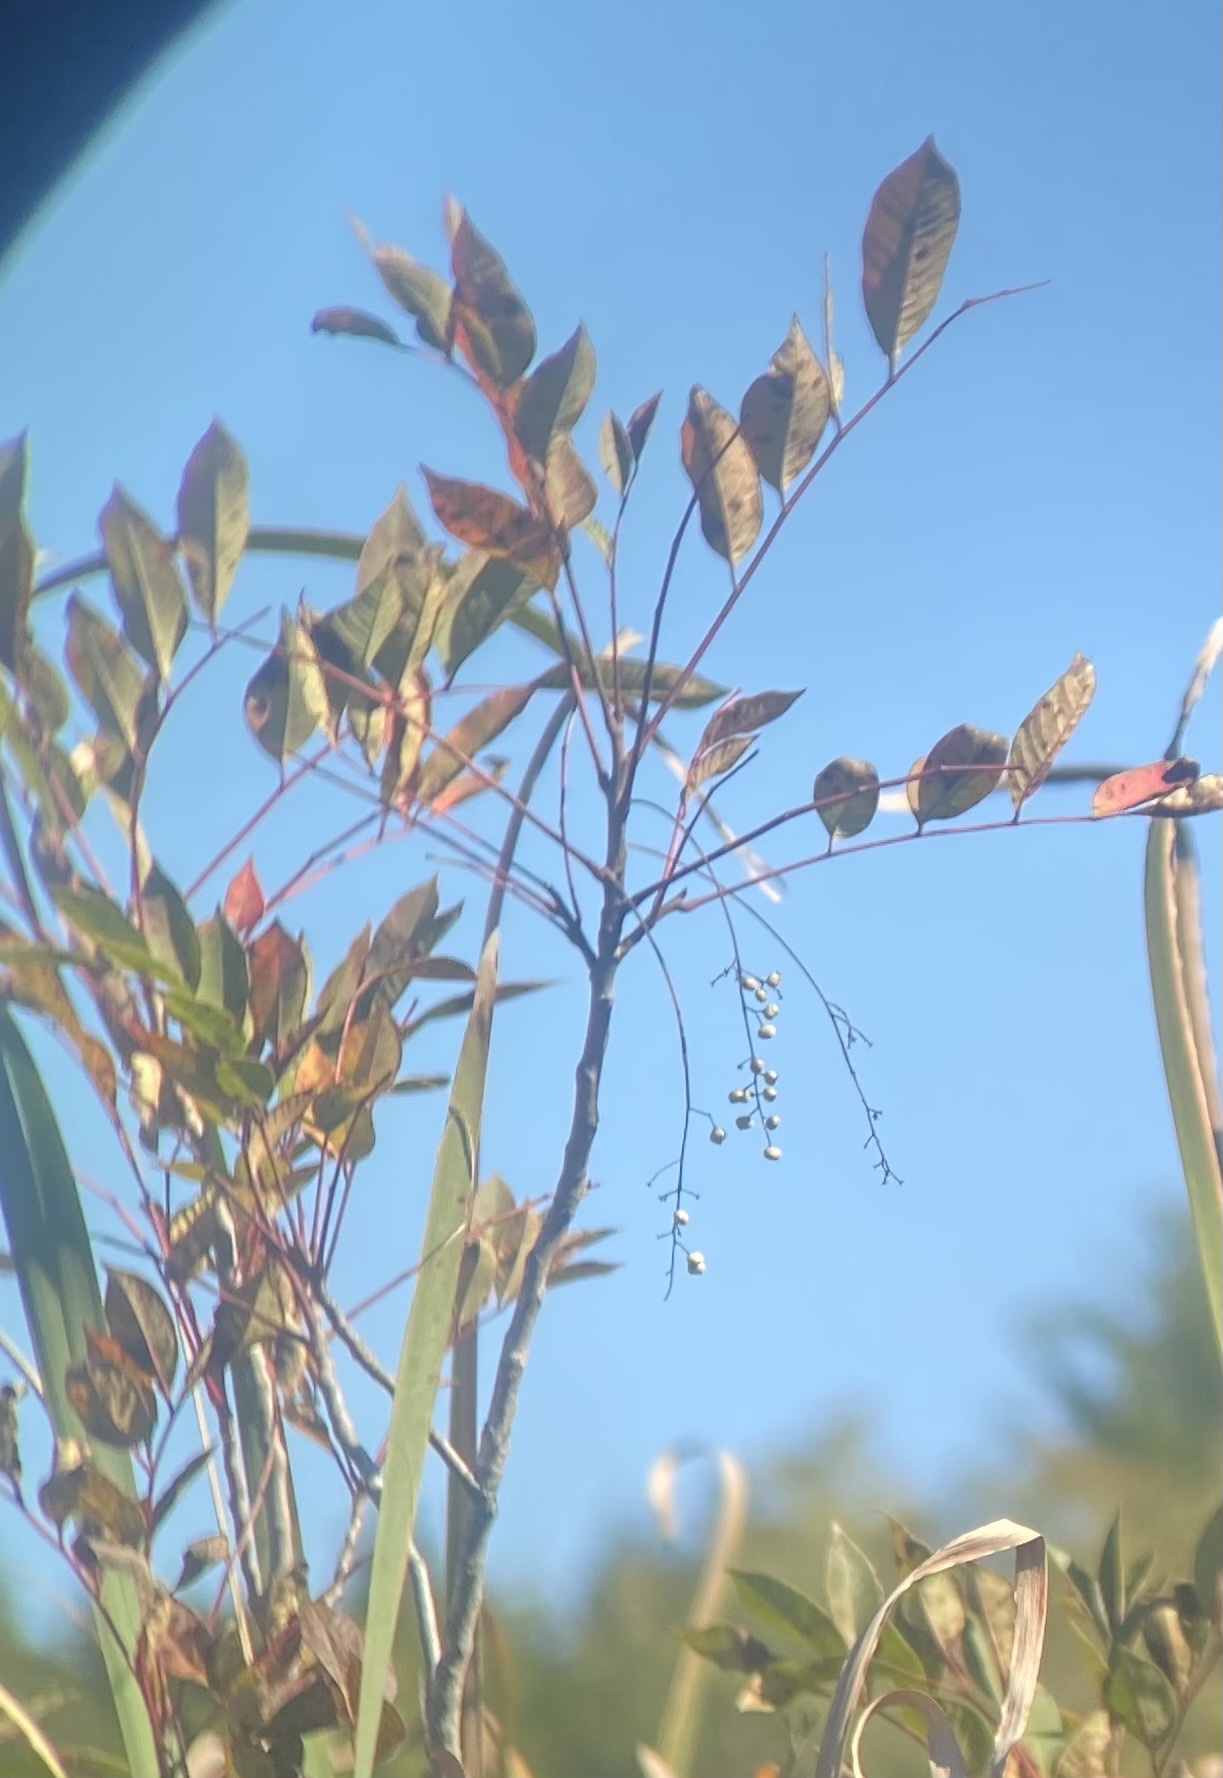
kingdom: Plantae
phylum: Tracheophyta
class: Magnoliopsida
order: Sapindales
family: Anacardiaceae
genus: Toxicodendron
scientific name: Toxicodendron vernix
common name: Poison sumac
